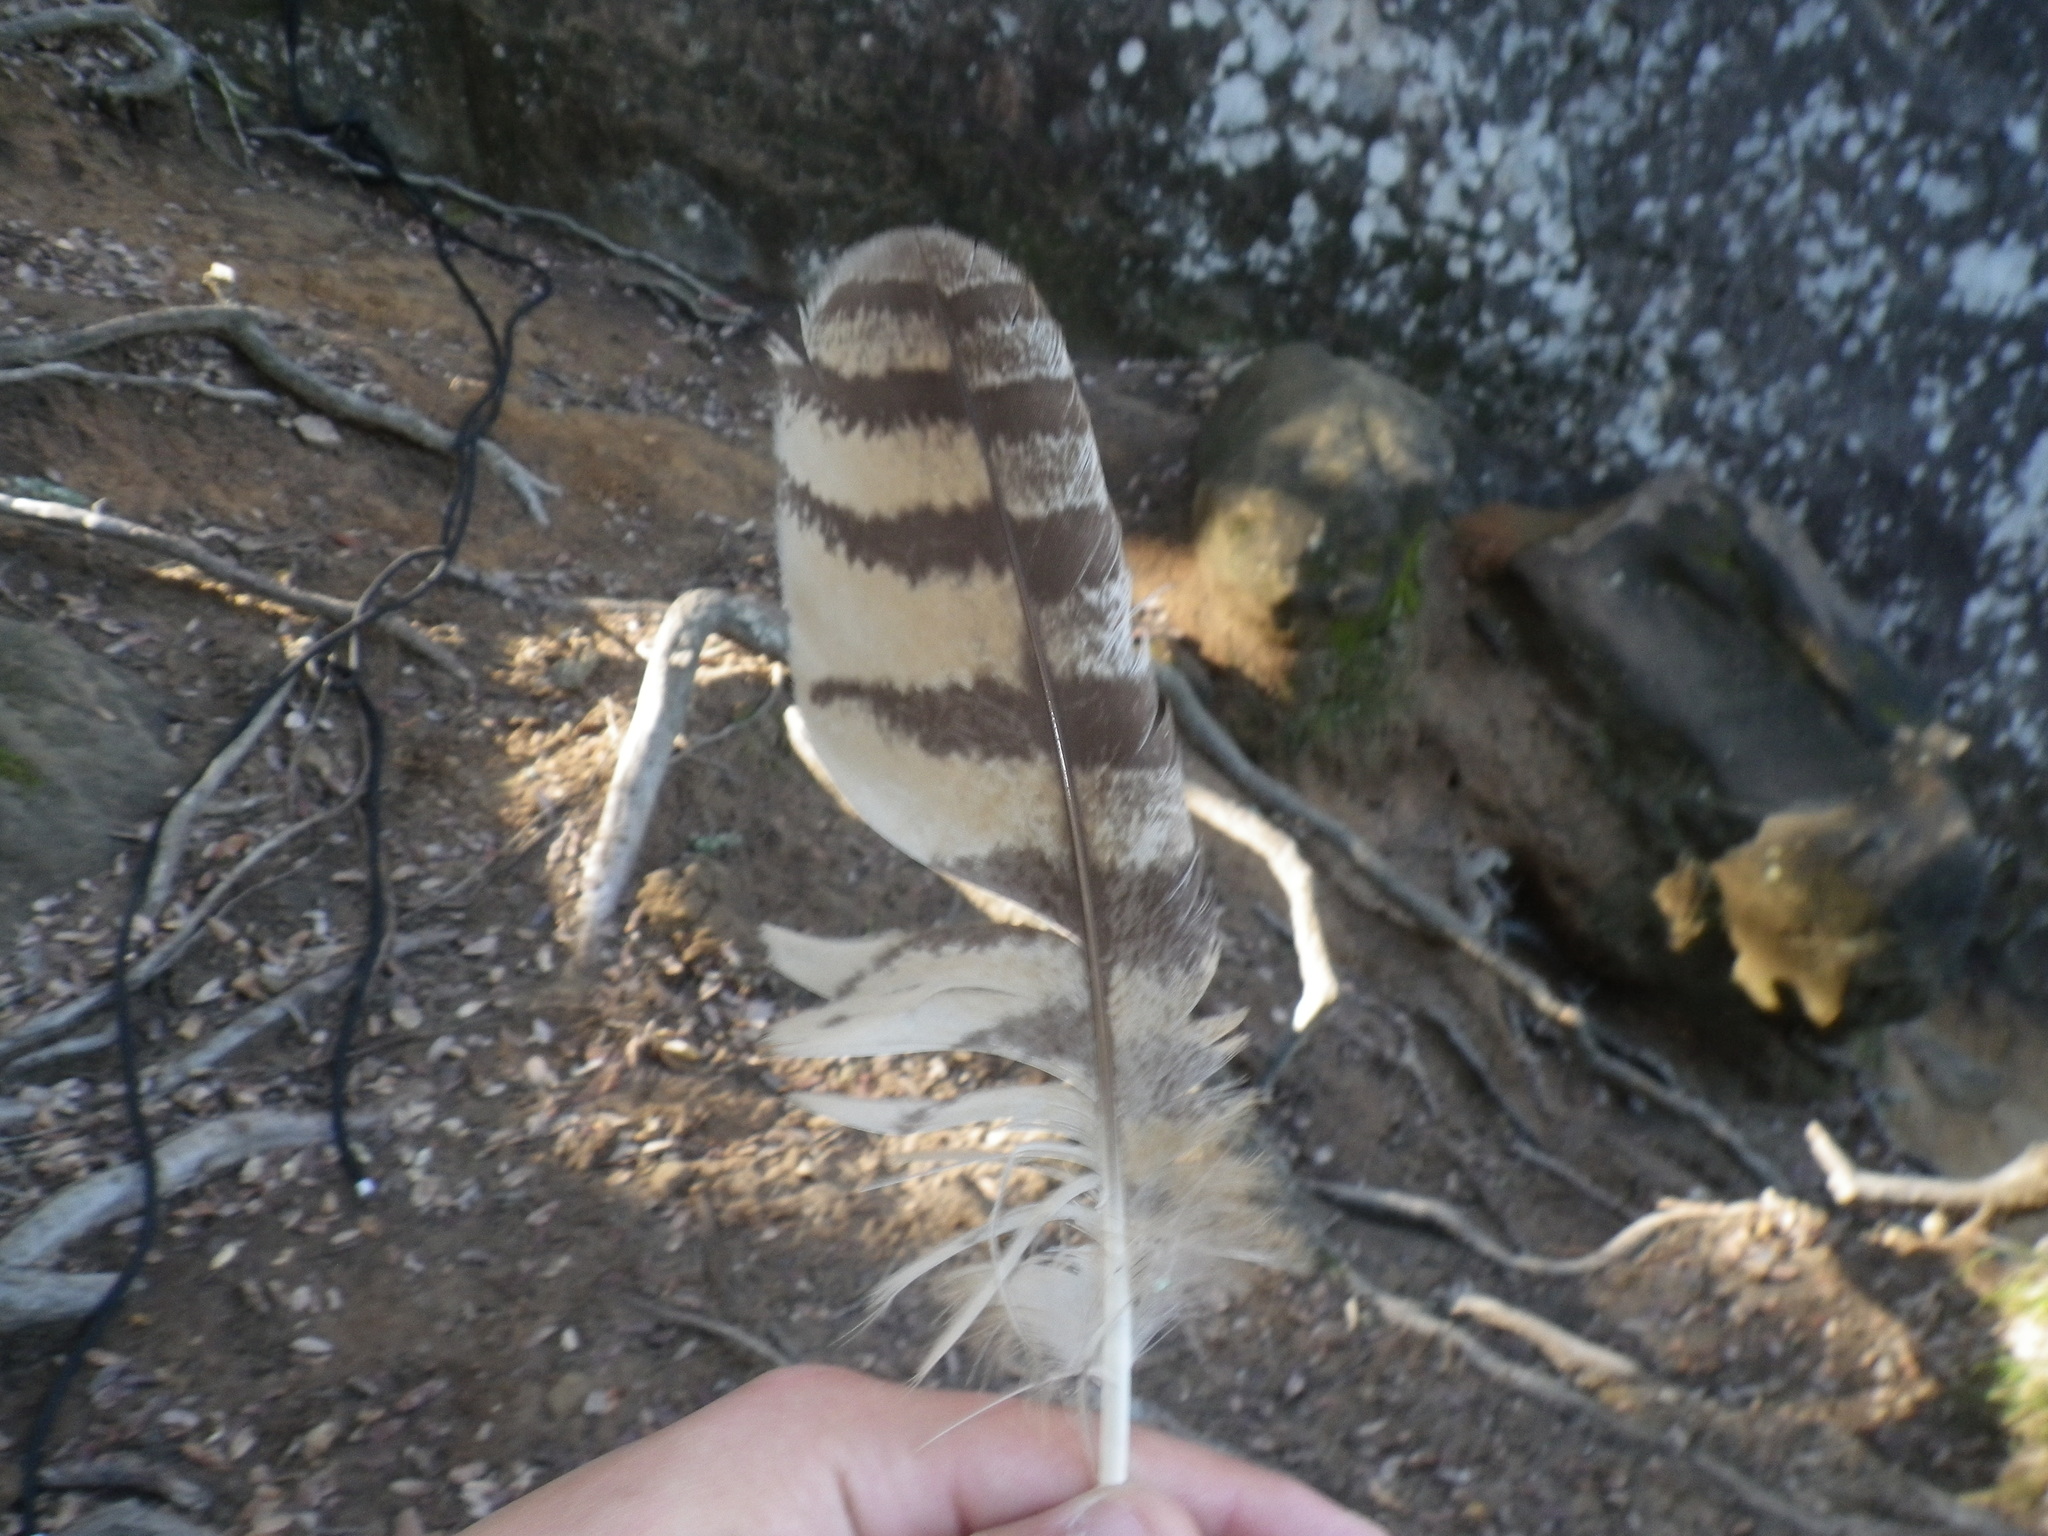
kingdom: Animalia
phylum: Chordata
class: Aves
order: Strigiformes
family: Strigidae
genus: Bubo
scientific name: Bubo virginianus
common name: Great horned owl
